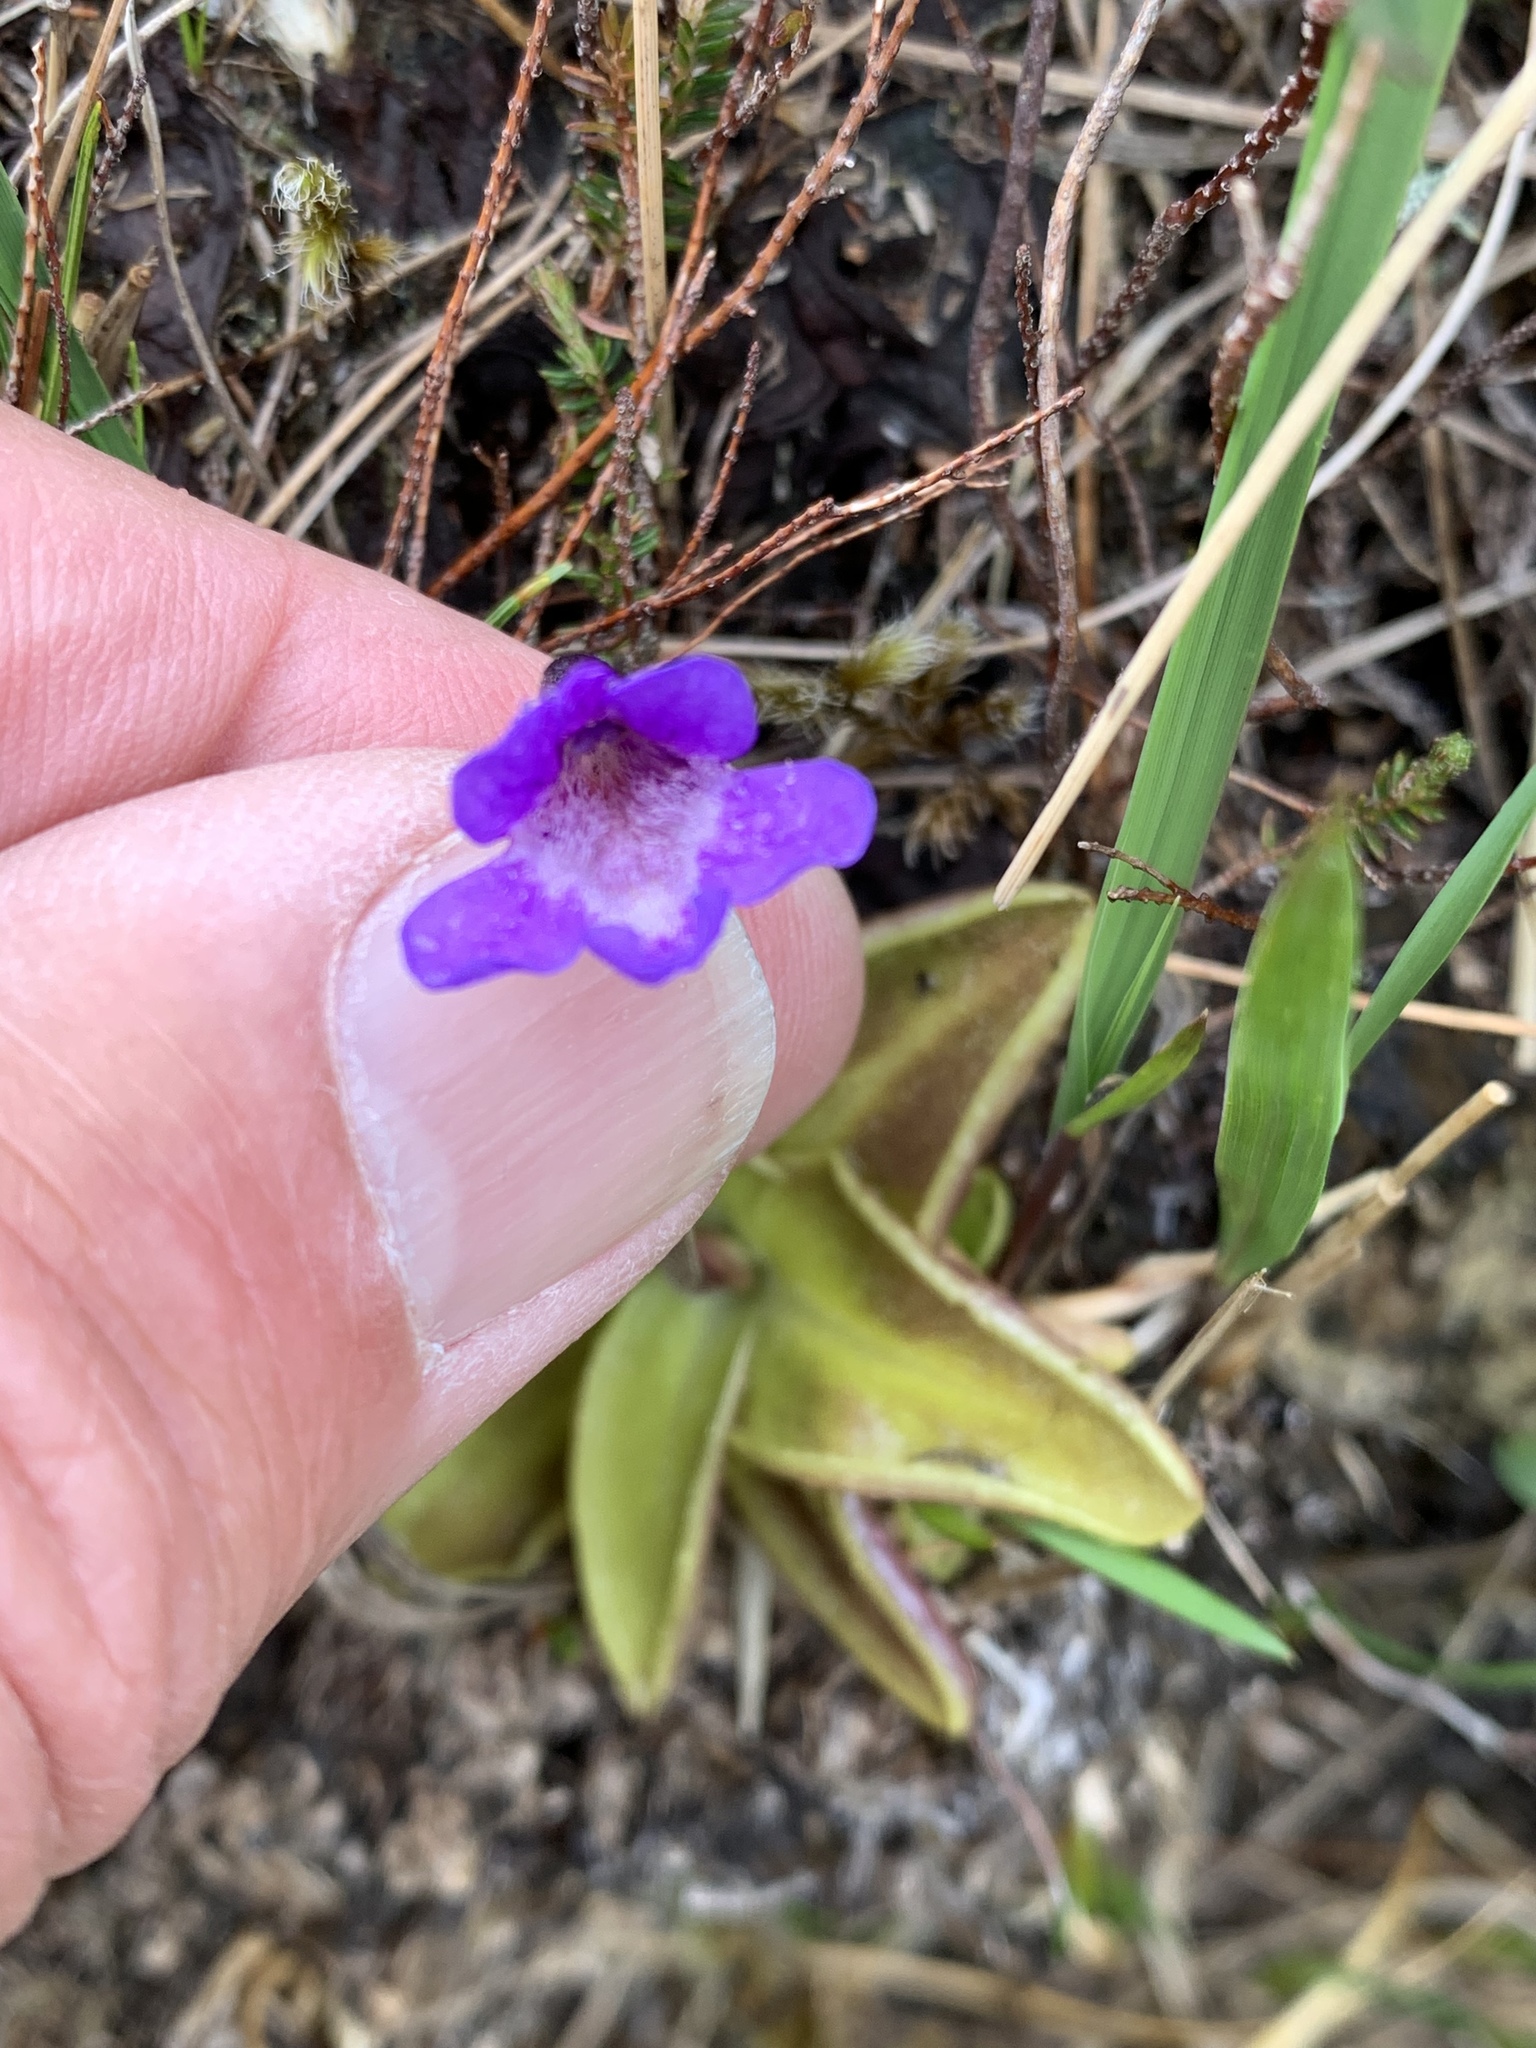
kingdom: Plantae
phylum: Tracheophyta
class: Magnoliopsida
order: Lamiales
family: Lentibulariaceae
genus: Pinguicula
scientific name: Pinguicula vulgaris
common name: Common butterwort
